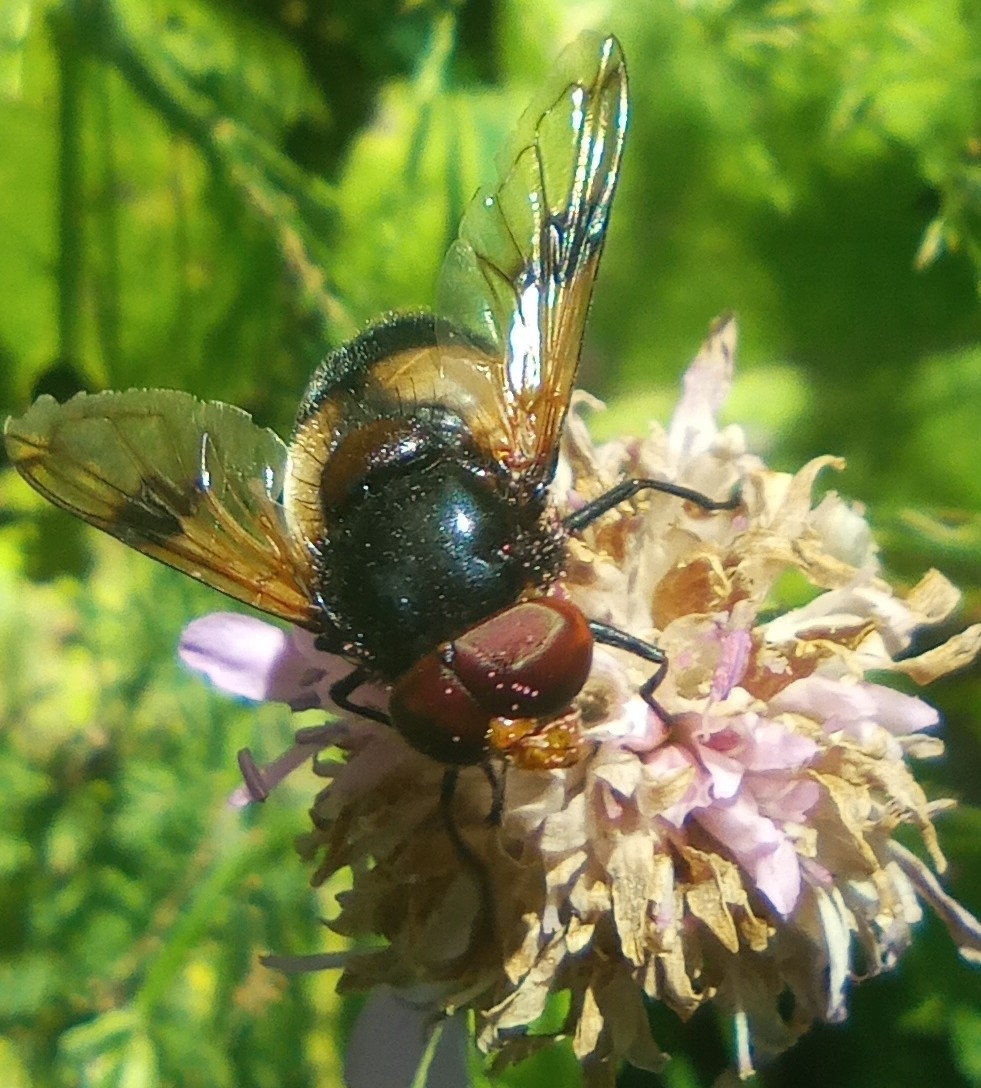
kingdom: Animalia
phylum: Arthropoda
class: Insecta
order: Diptera
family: Syrphidae
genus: Volucella
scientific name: Volucella pellucens
